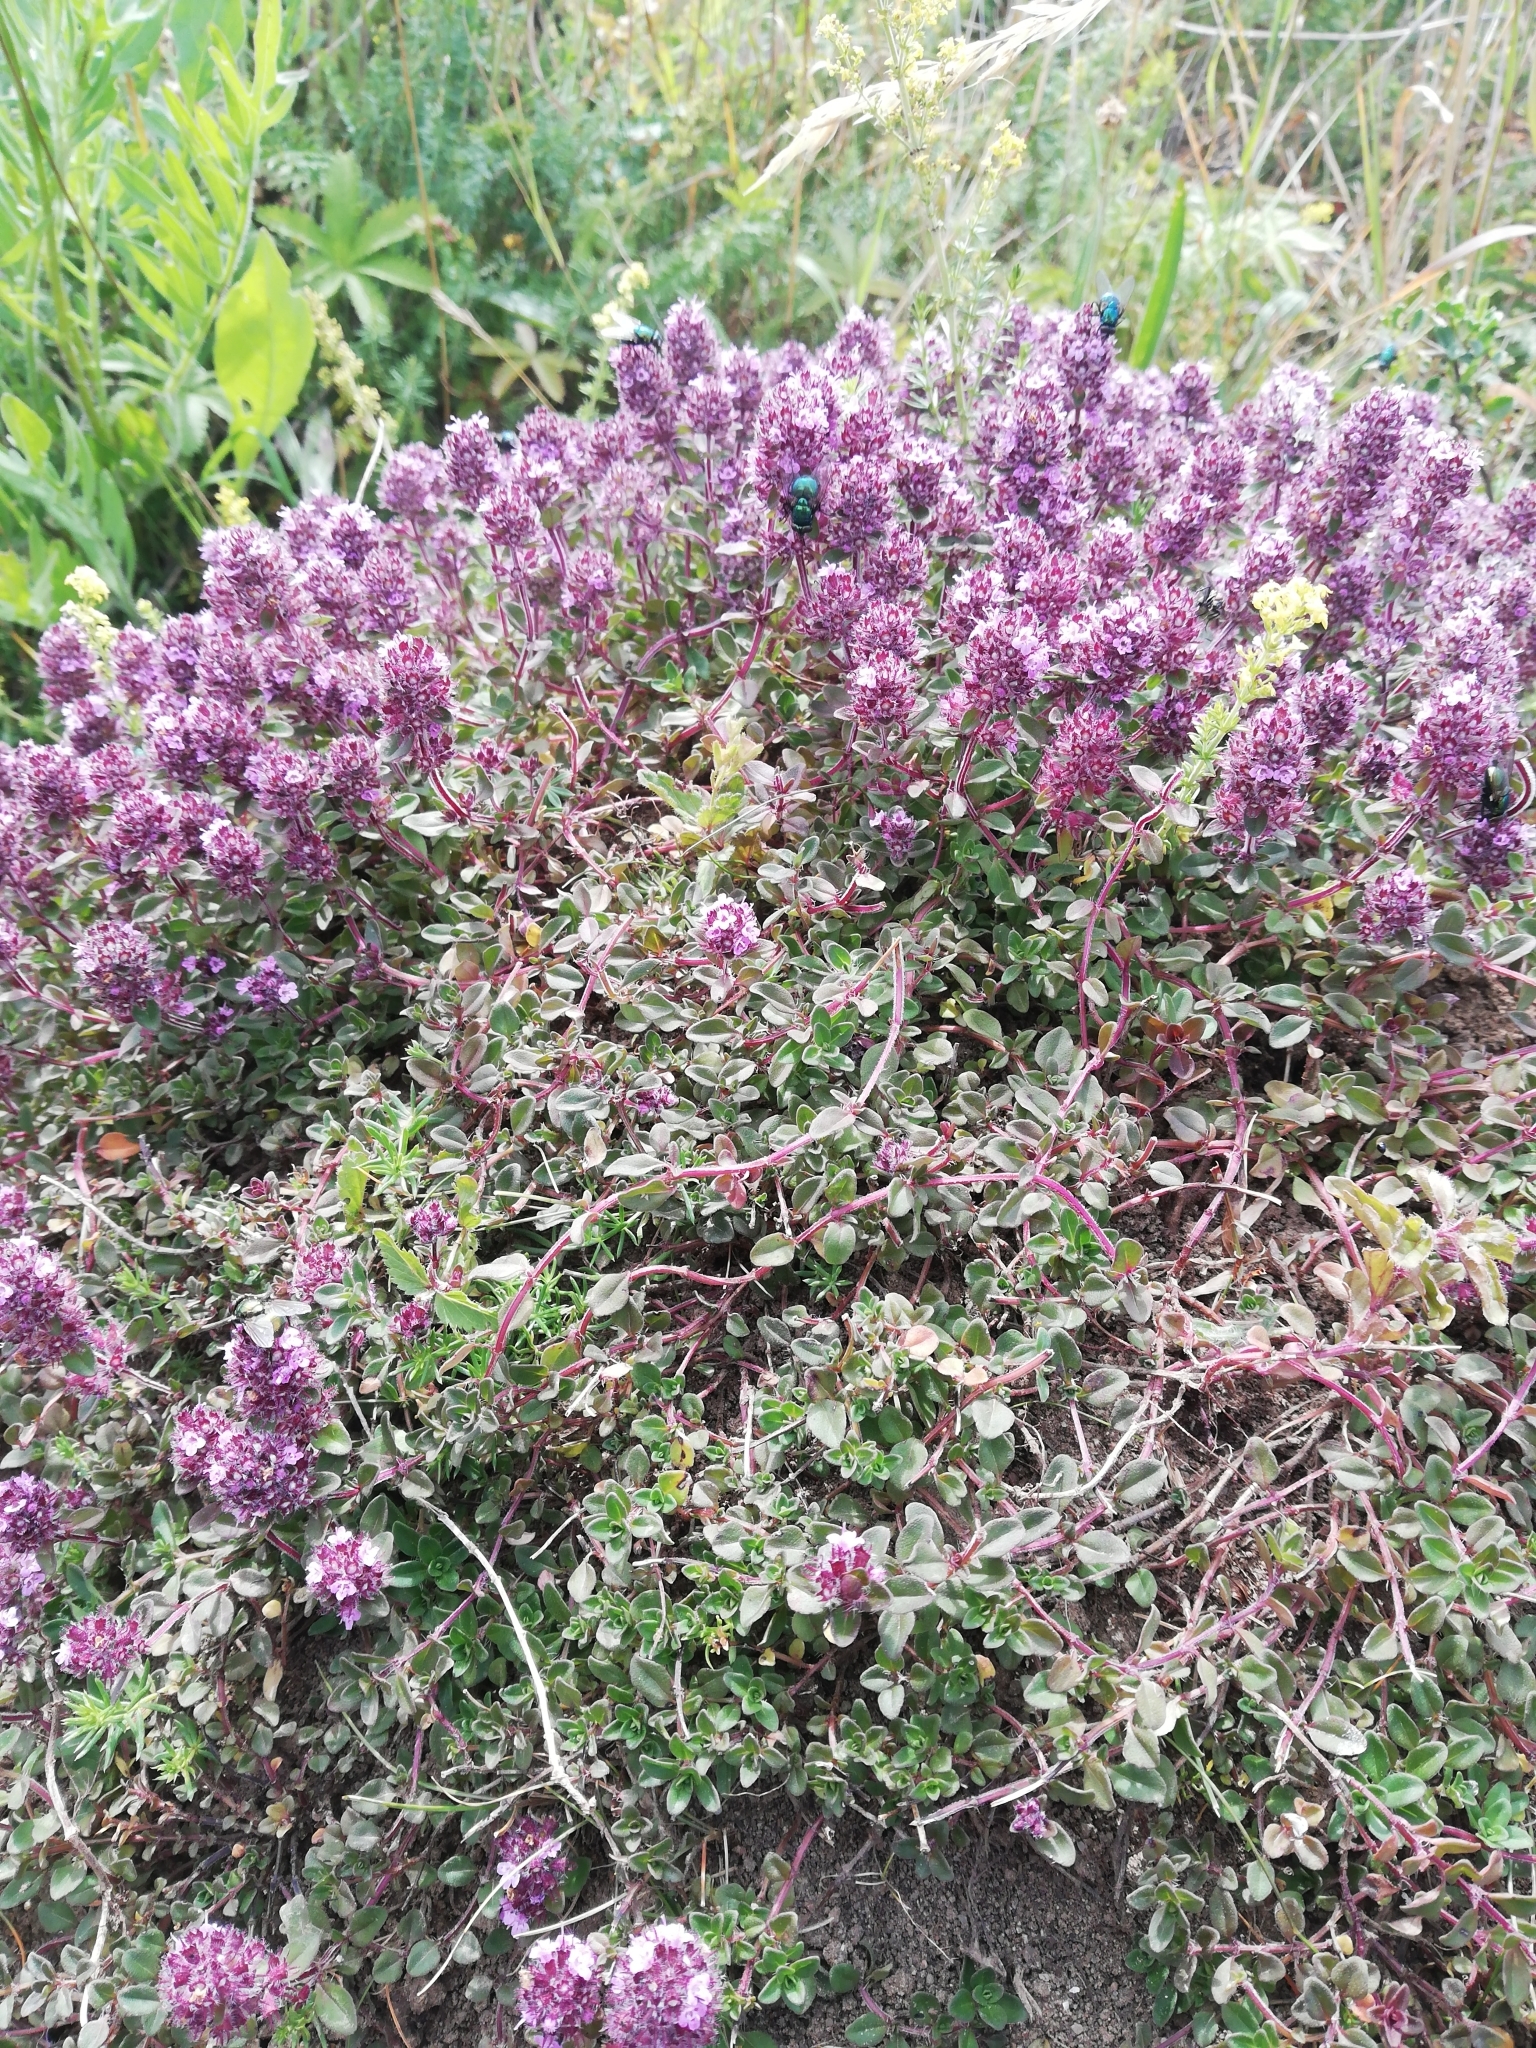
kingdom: Plantae
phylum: Tracheophyta
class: Magnoliopsida
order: Lamiales
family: Lamiaceae
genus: Thymus
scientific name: Thymus pulegioides
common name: Large thyme
